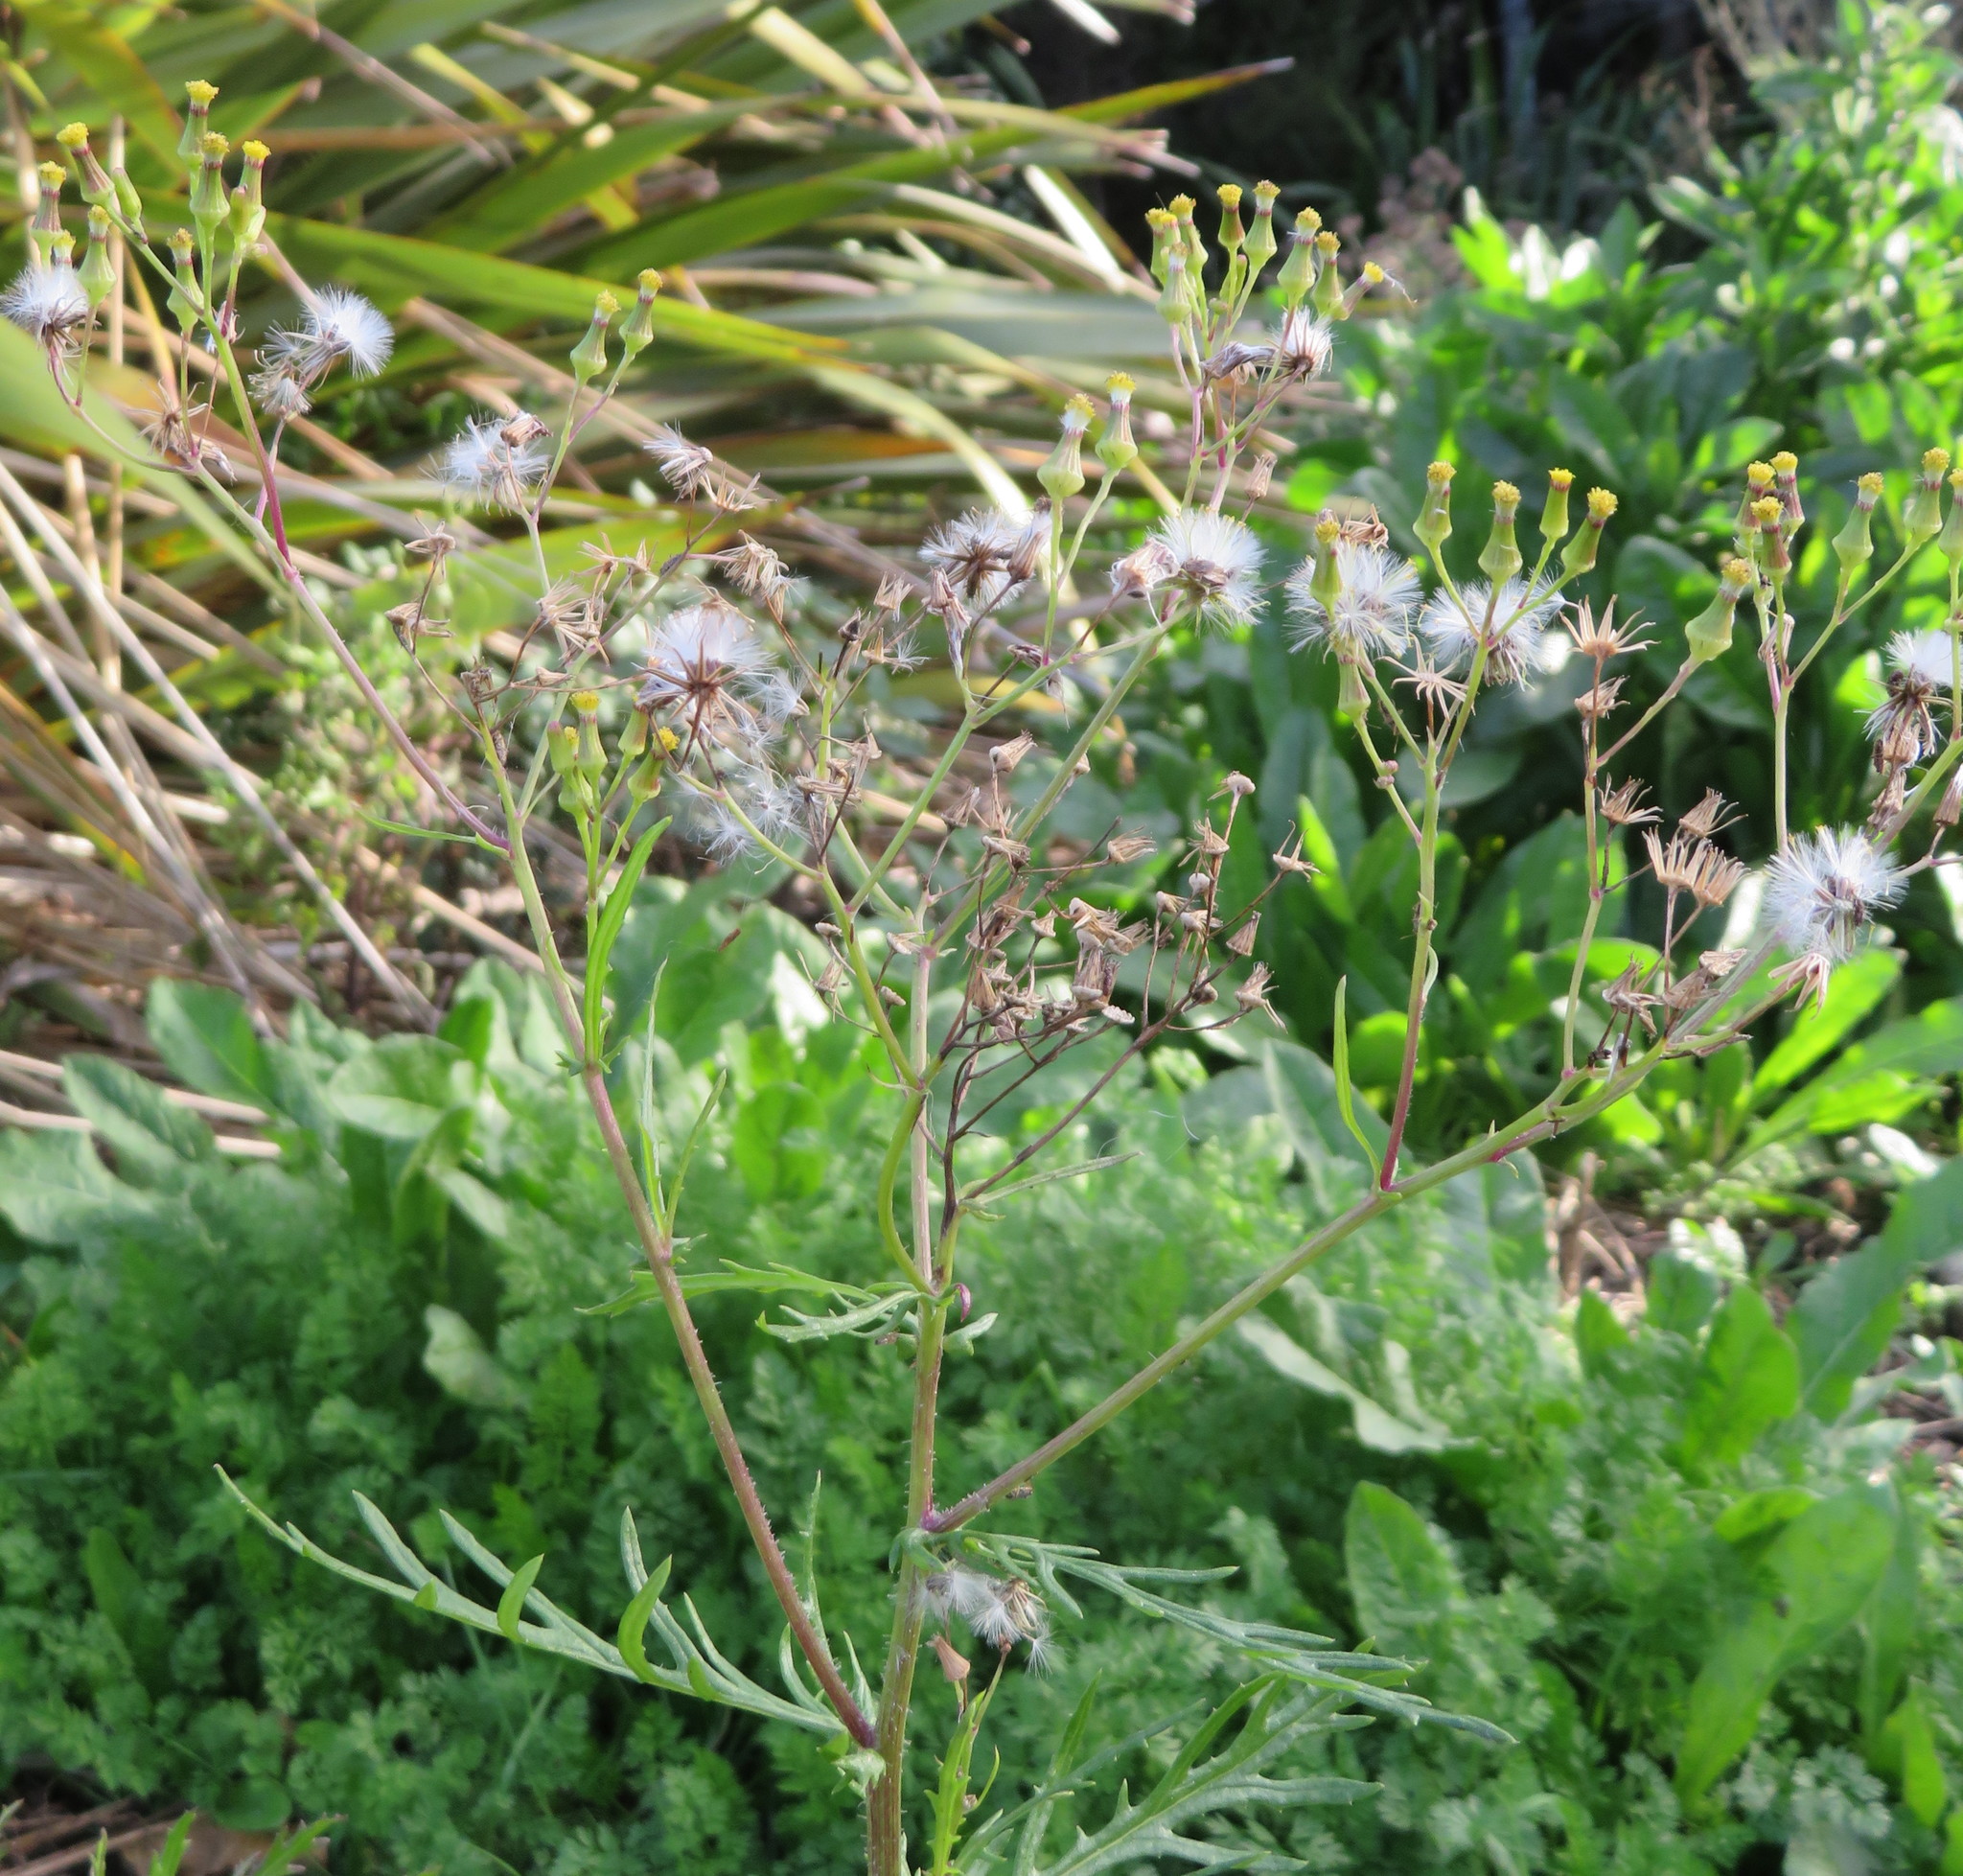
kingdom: Plantae
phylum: Tracheophyta
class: Magnoliopsida
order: Asterales
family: Asteraceae
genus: Senecio
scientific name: Senecio esleri
